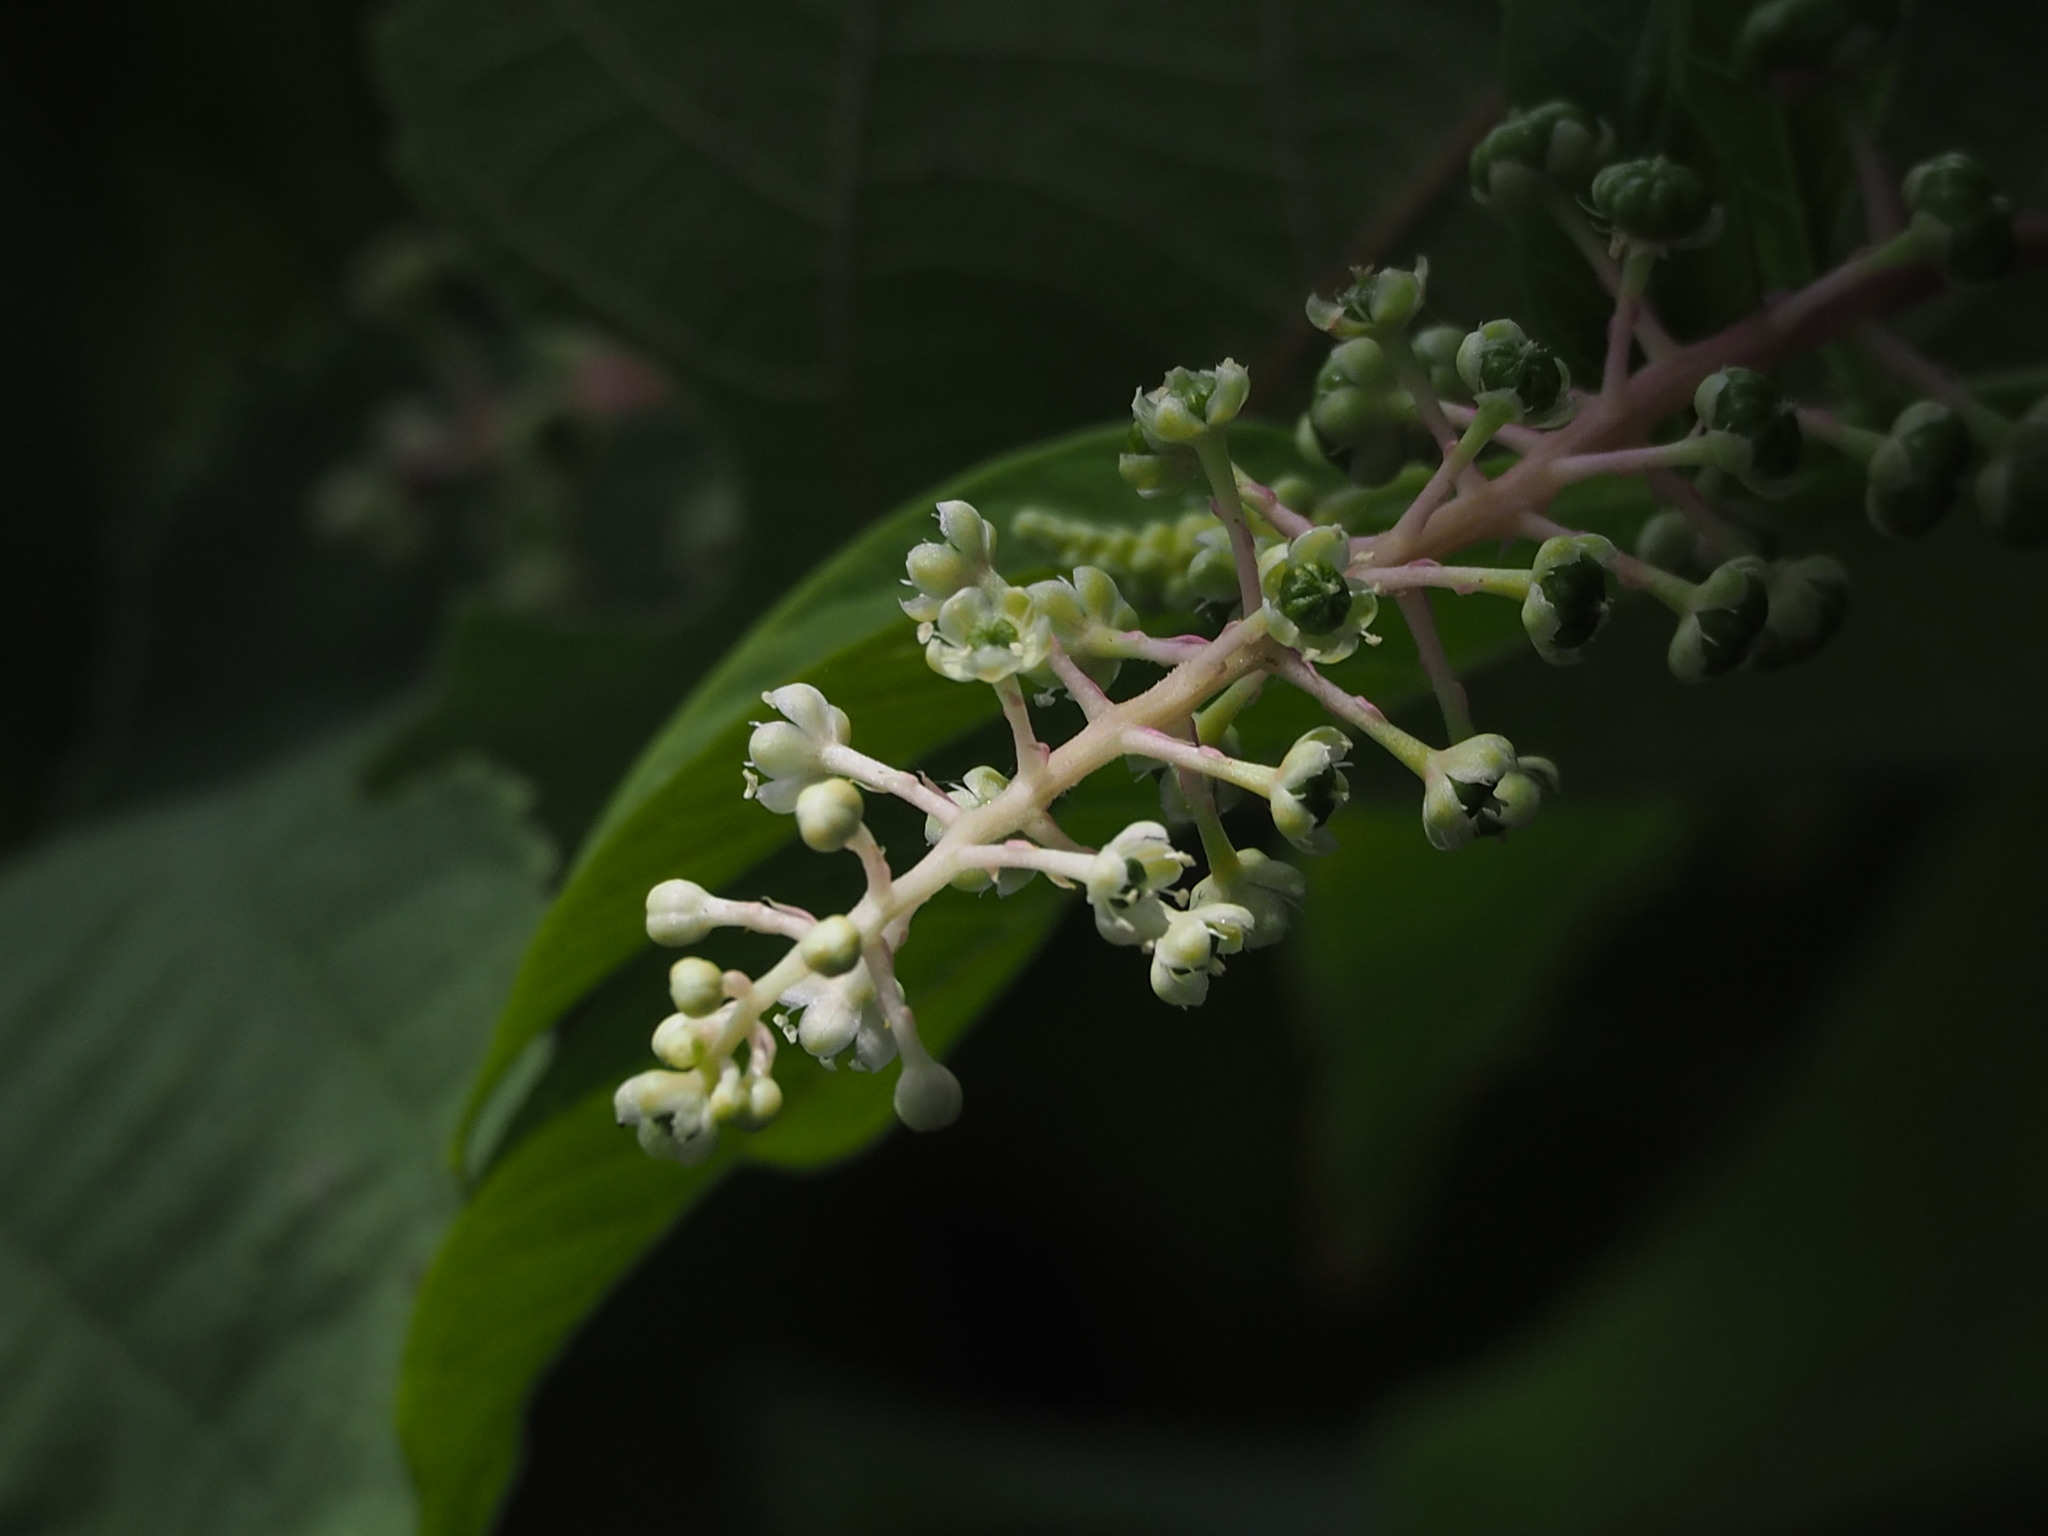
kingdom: Plantae
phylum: Tracheophyta
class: Magnoliopsida
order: Caryophyllales
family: Phytolaccaceae
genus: Phytolacca
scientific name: Phytolacca americana
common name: American pokeweed
